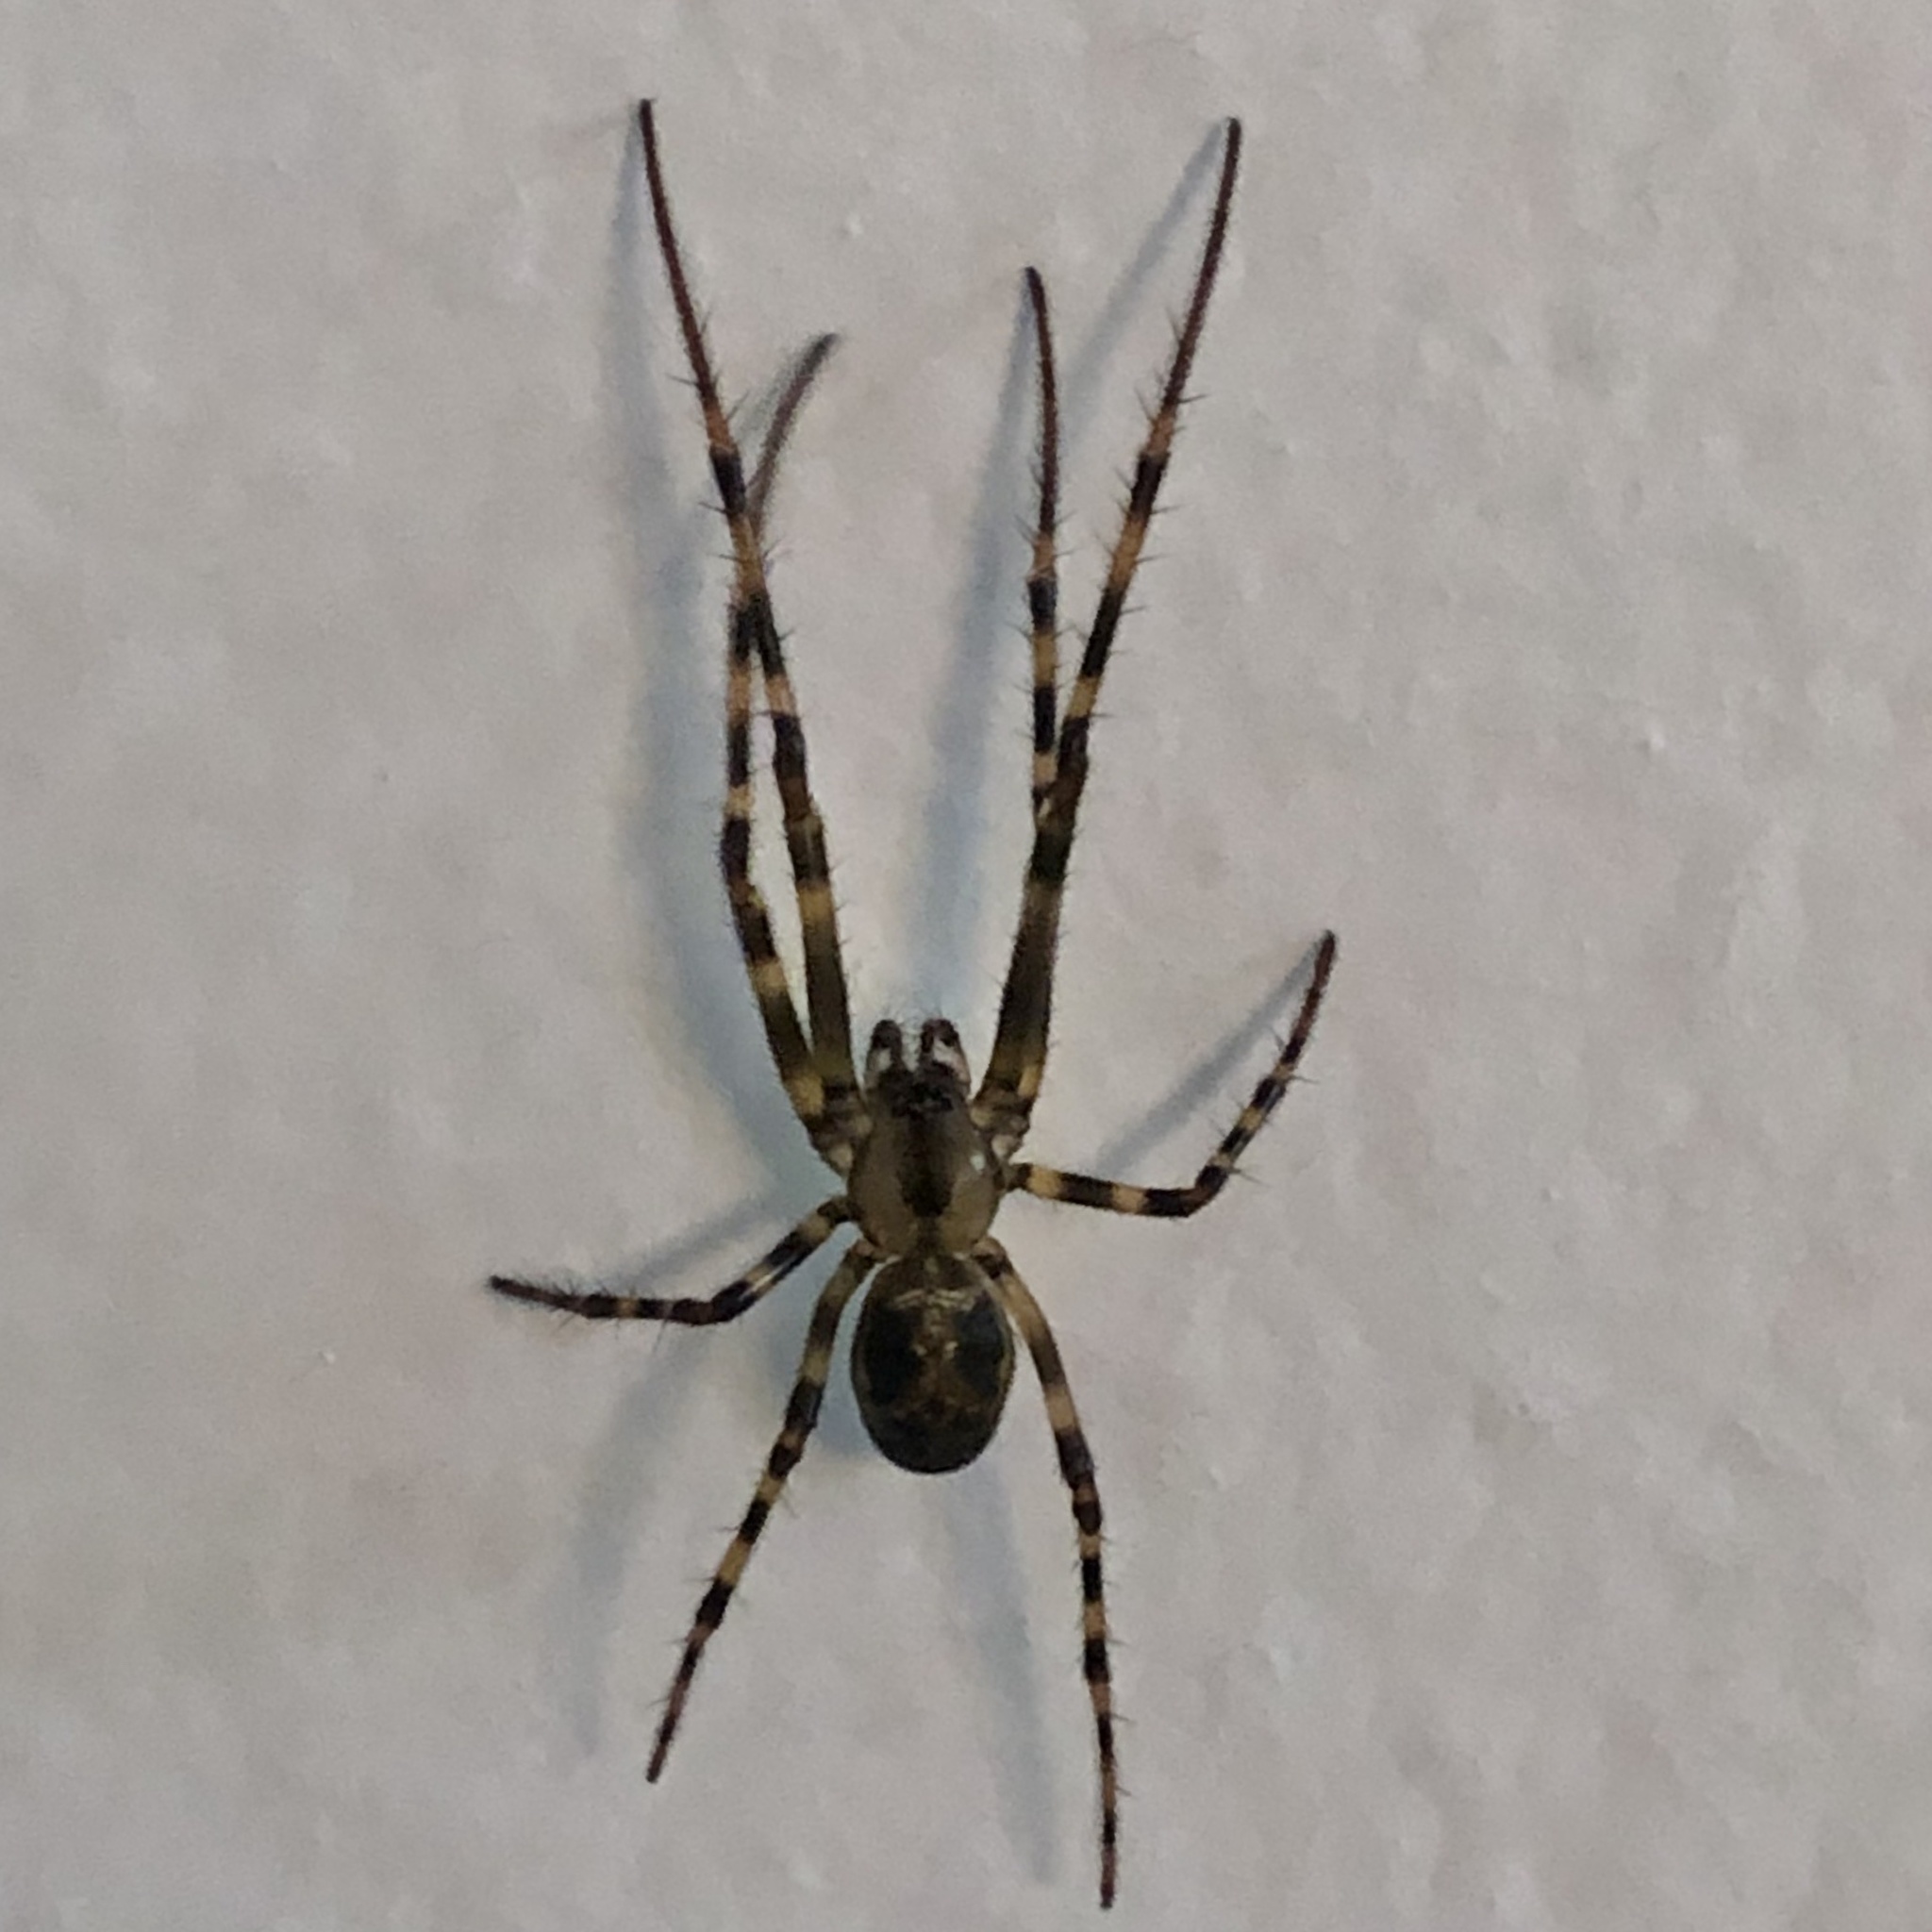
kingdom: Animalia
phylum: Arthropoda
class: Arachnida
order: Araneae
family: Tetragnathidae
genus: Meta
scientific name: Meta ovalis
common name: Eastern cave long-jawed spider
